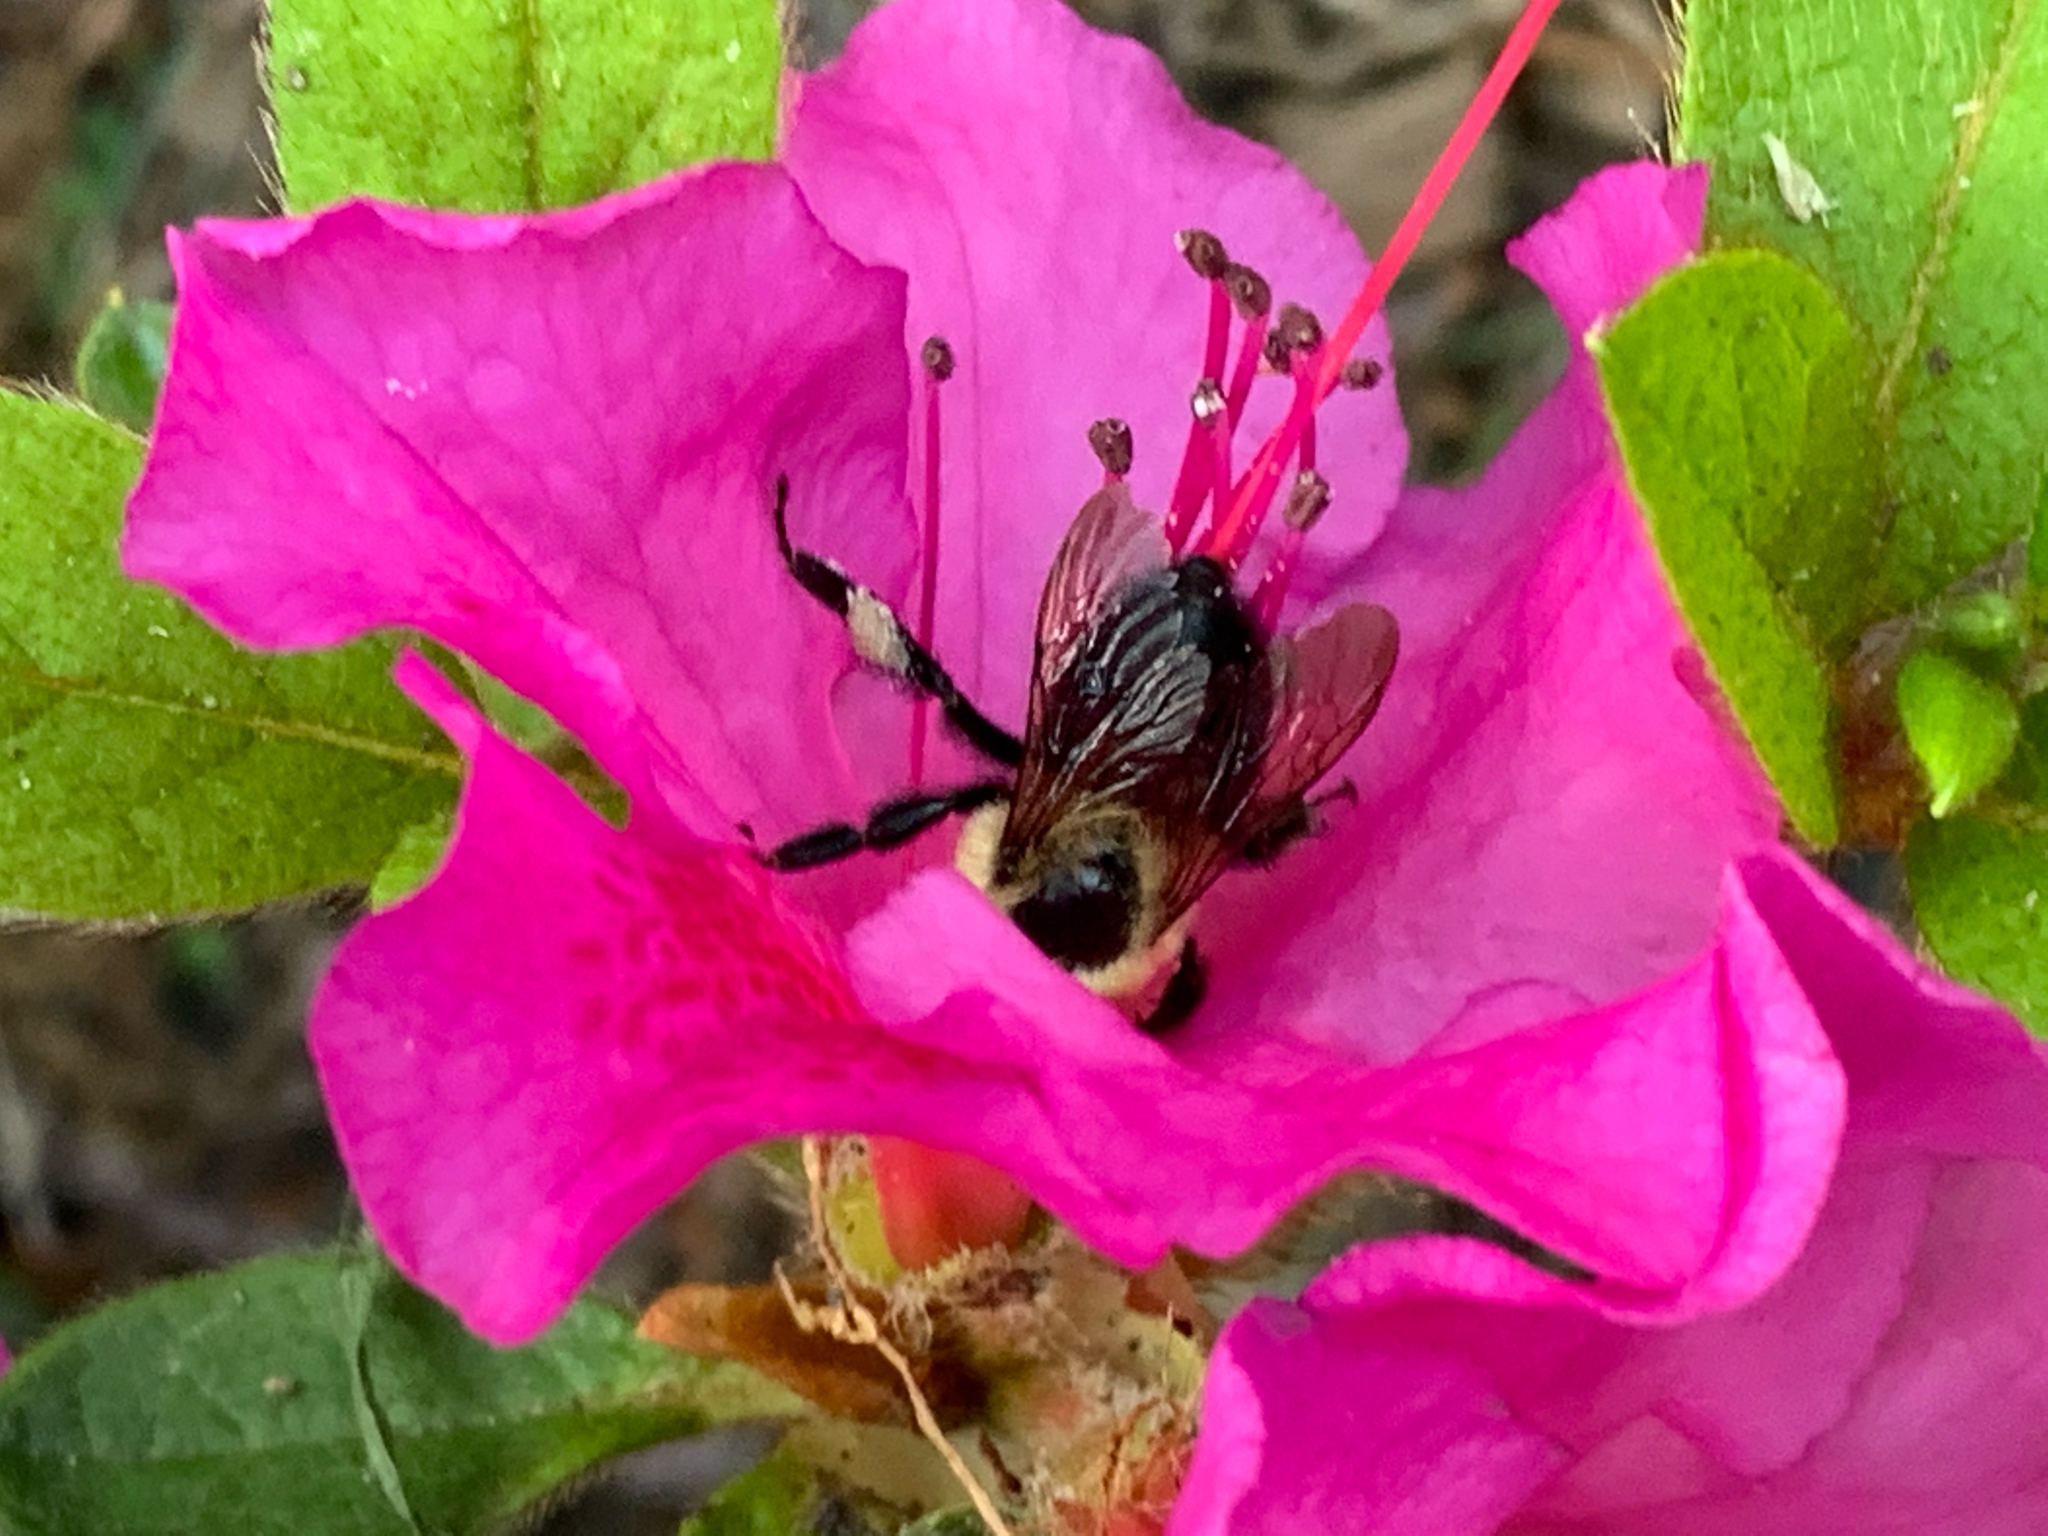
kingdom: Animalia
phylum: Arthropoda
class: Insecta
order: Hymenoptera
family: Apidae
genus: Bombus
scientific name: Bombus griseocollis
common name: Brown-belted bumble bee
